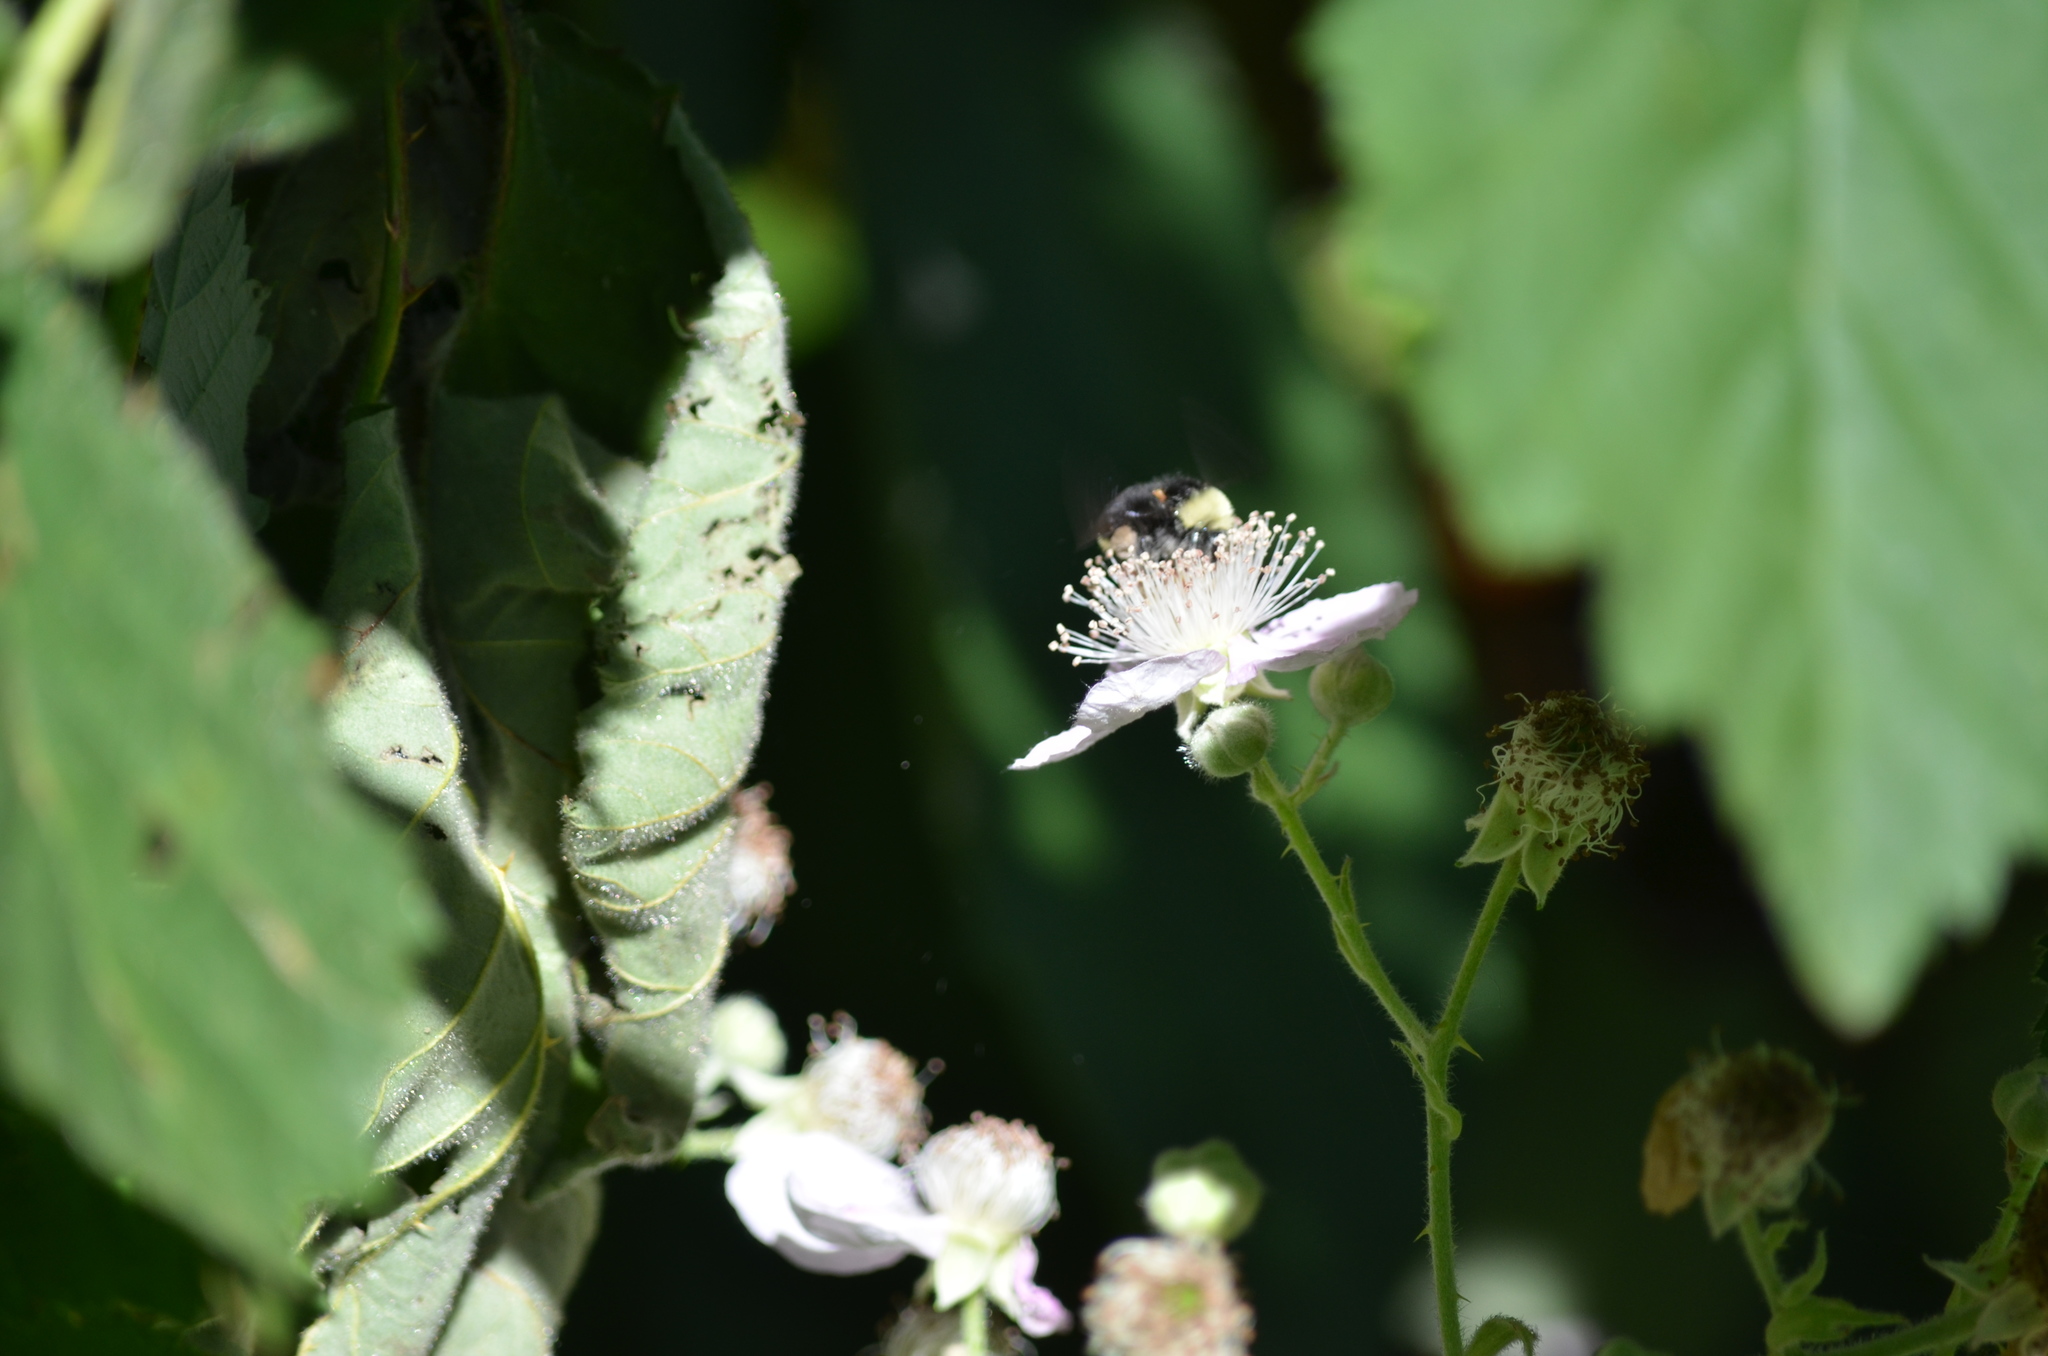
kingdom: Animalia
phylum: Arthropoda
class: Insecta
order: Hymenoptera
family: Apidae
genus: Bombus
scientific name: Bombus vosnesenskii
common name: Vosnesensky bumble bee
